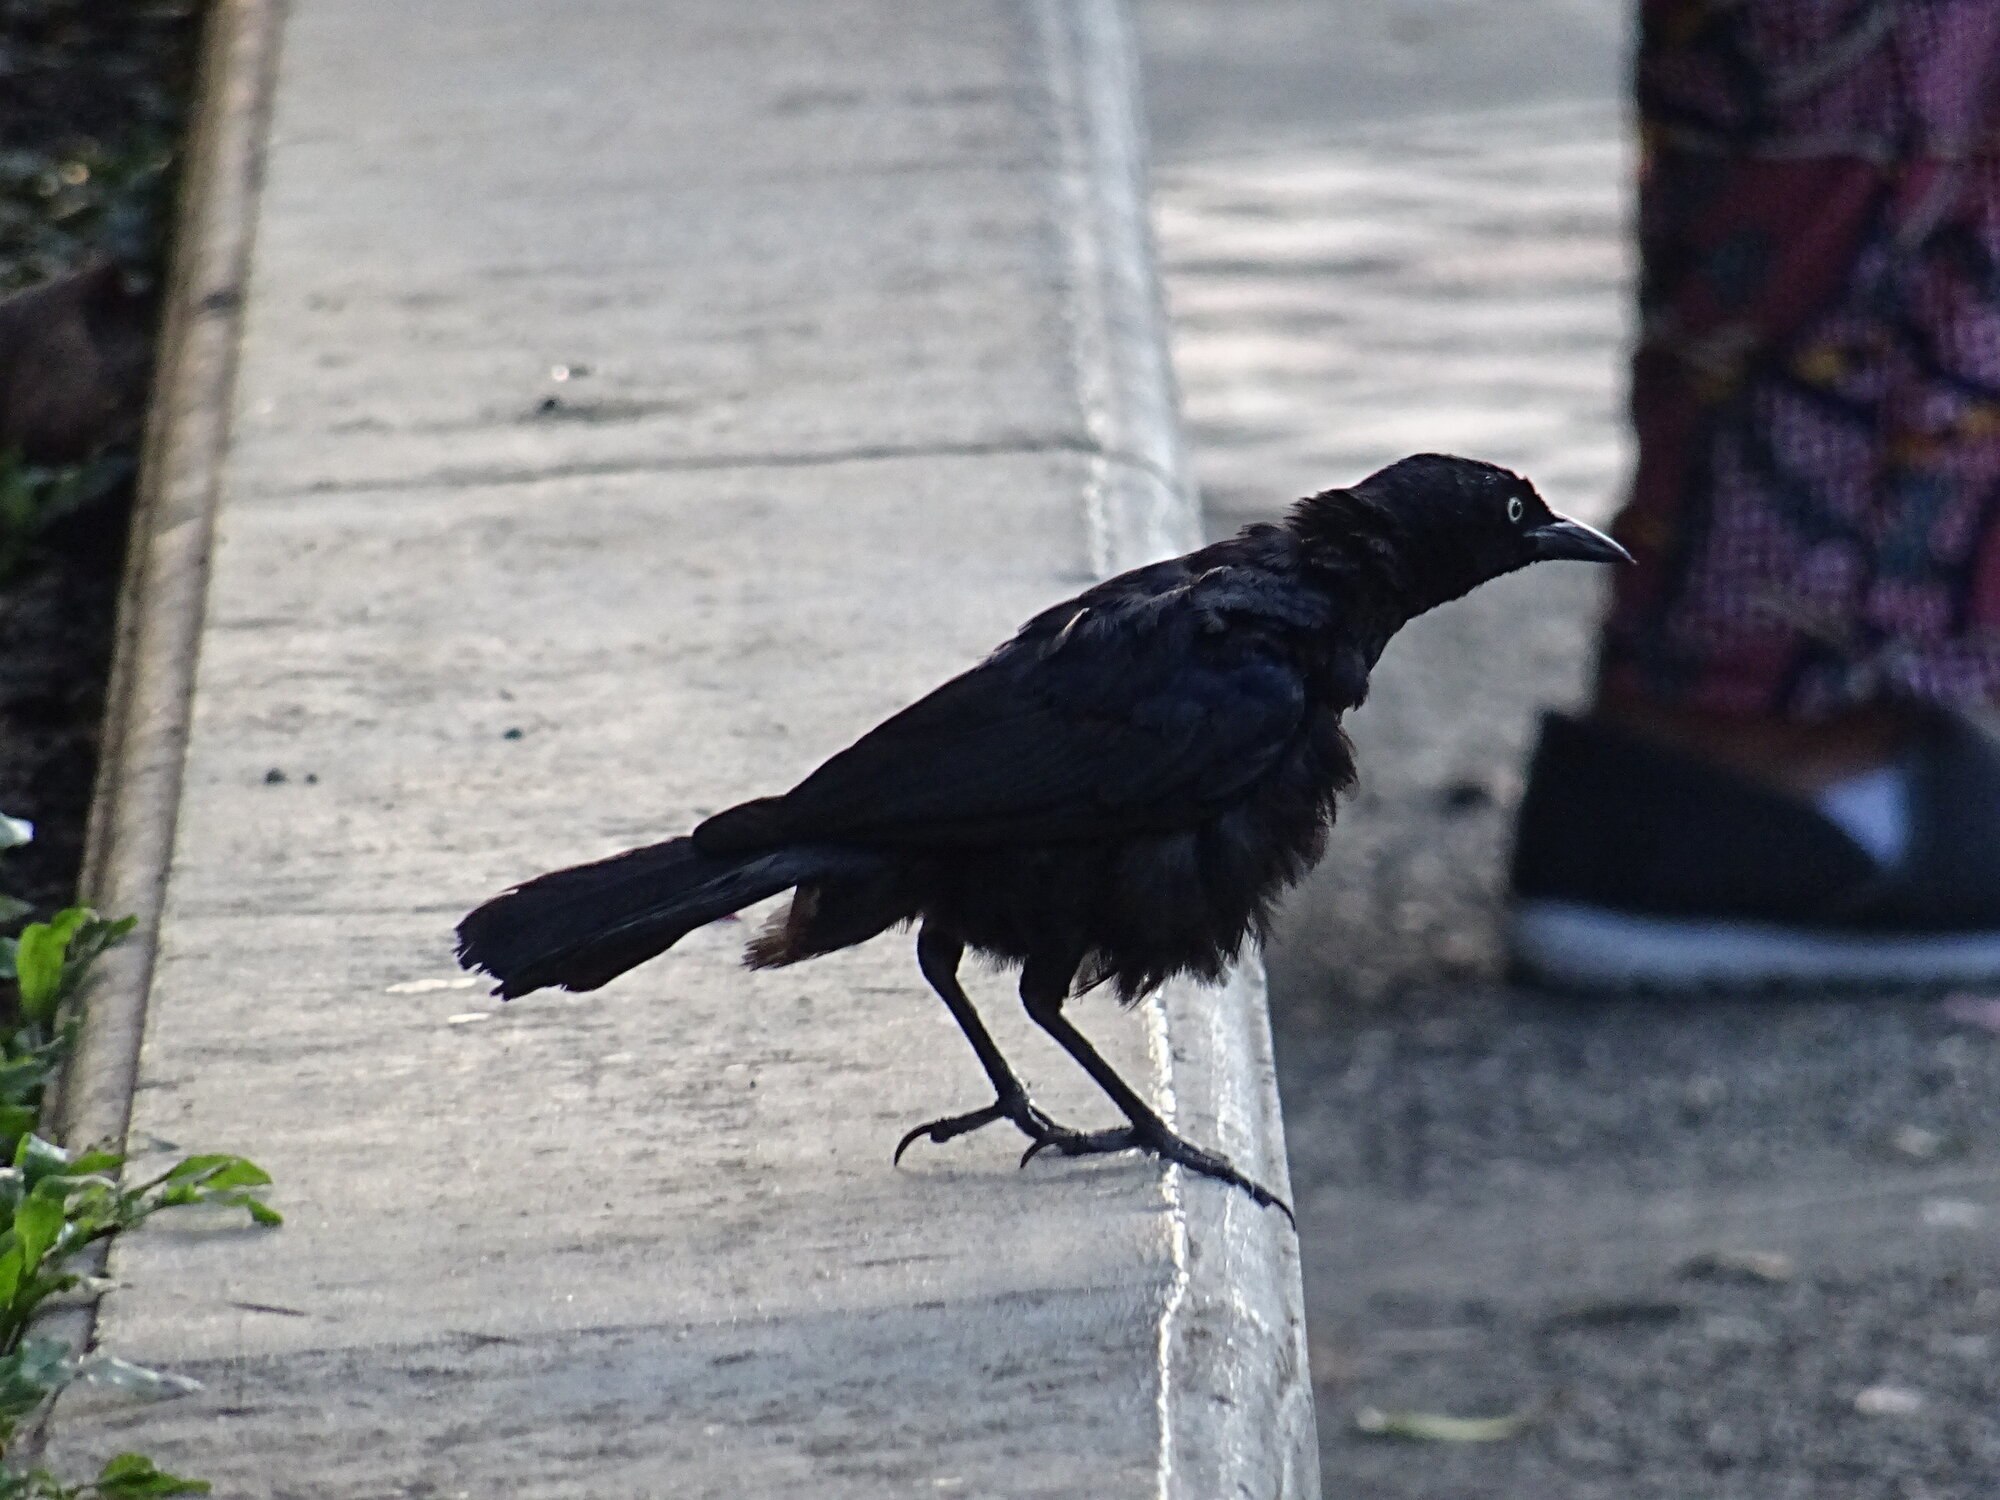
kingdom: Animalia
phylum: Chordata
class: Aves
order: Passeriformes
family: Icteridae
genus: Quiscalus
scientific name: Quiscalus lugubris
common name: Carib grackle
